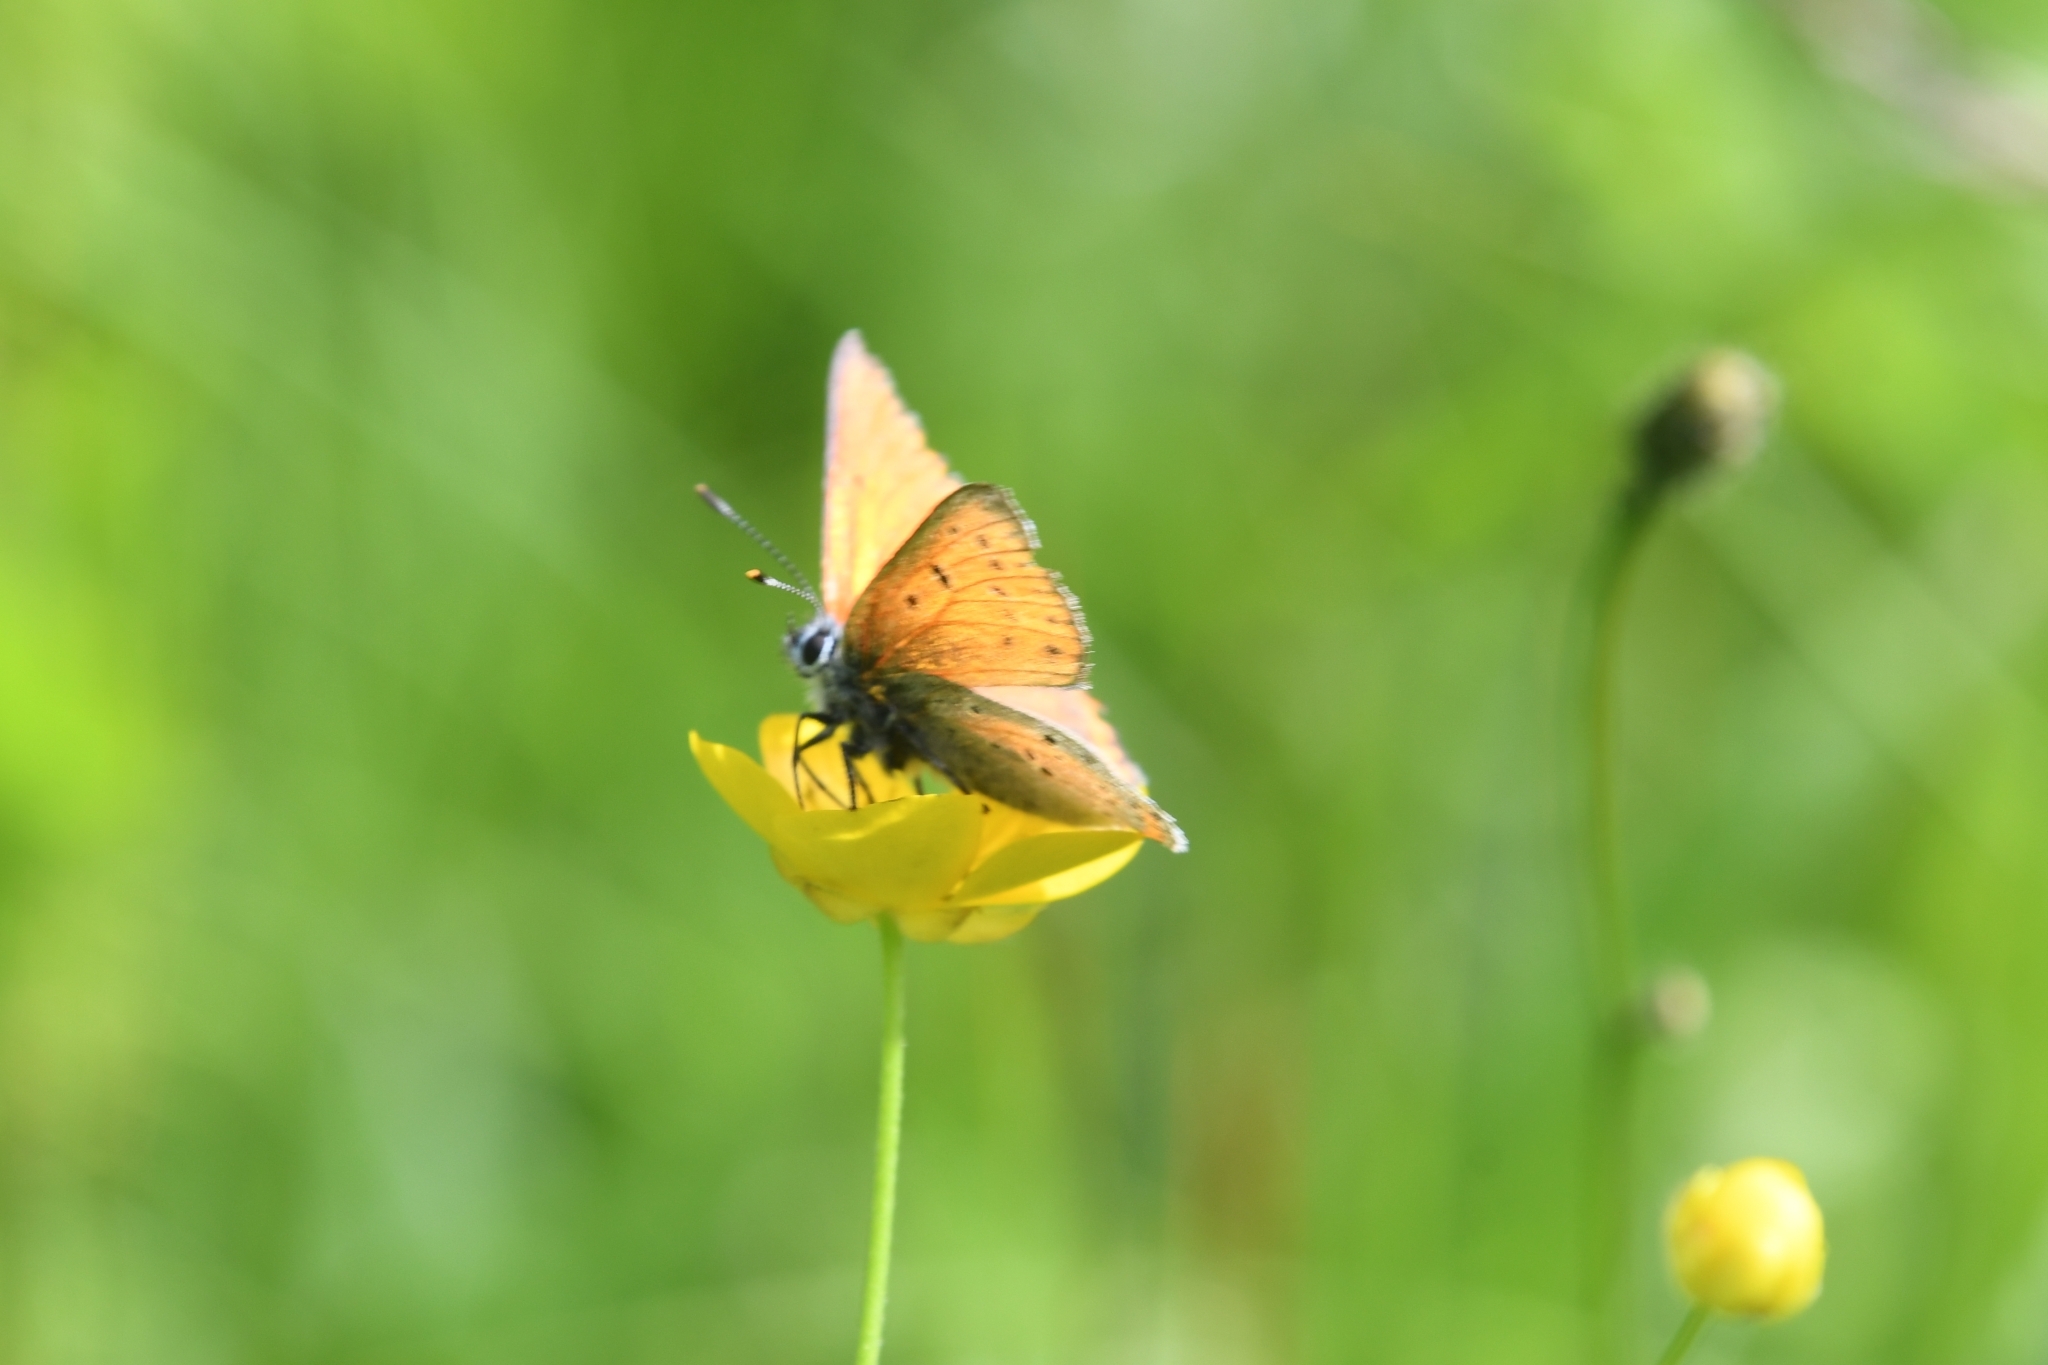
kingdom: Animalia
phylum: Arthropoda
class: Insecta
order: Lepidoptera
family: Lycaenidae
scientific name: Lycaenidae
